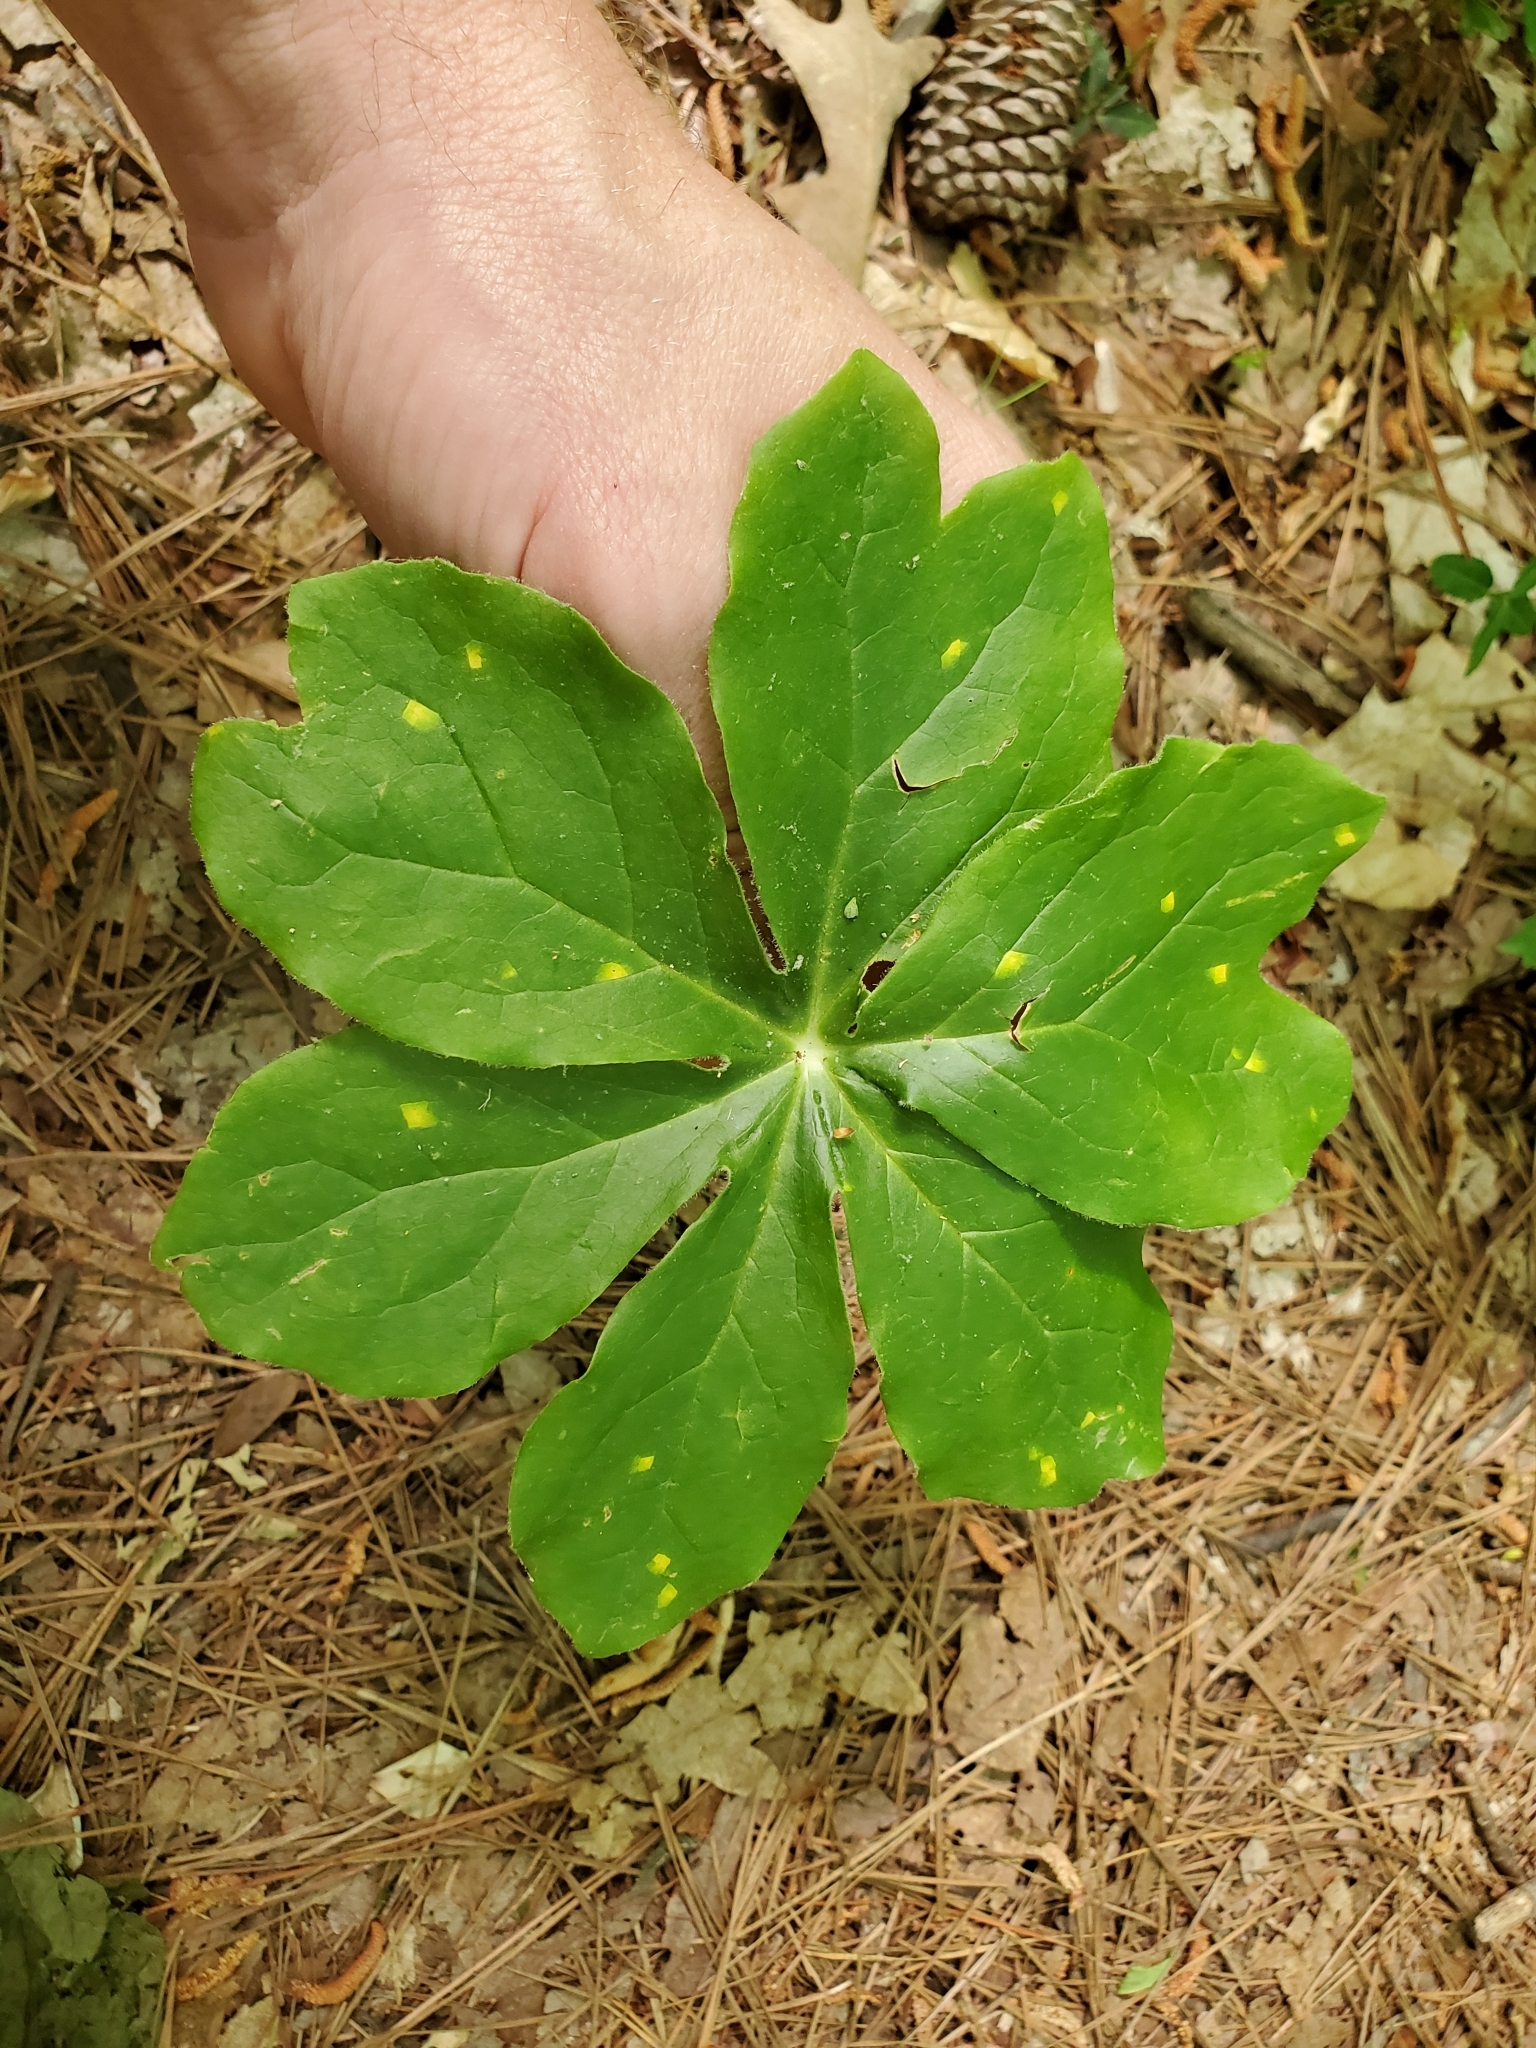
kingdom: Plantae
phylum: Tracheophyta
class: Magnoliopsida
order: Ranunculales
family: Berberidaceae
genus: Podophyllum
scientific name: Podophyllum peltatum
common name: Wild mandrake
